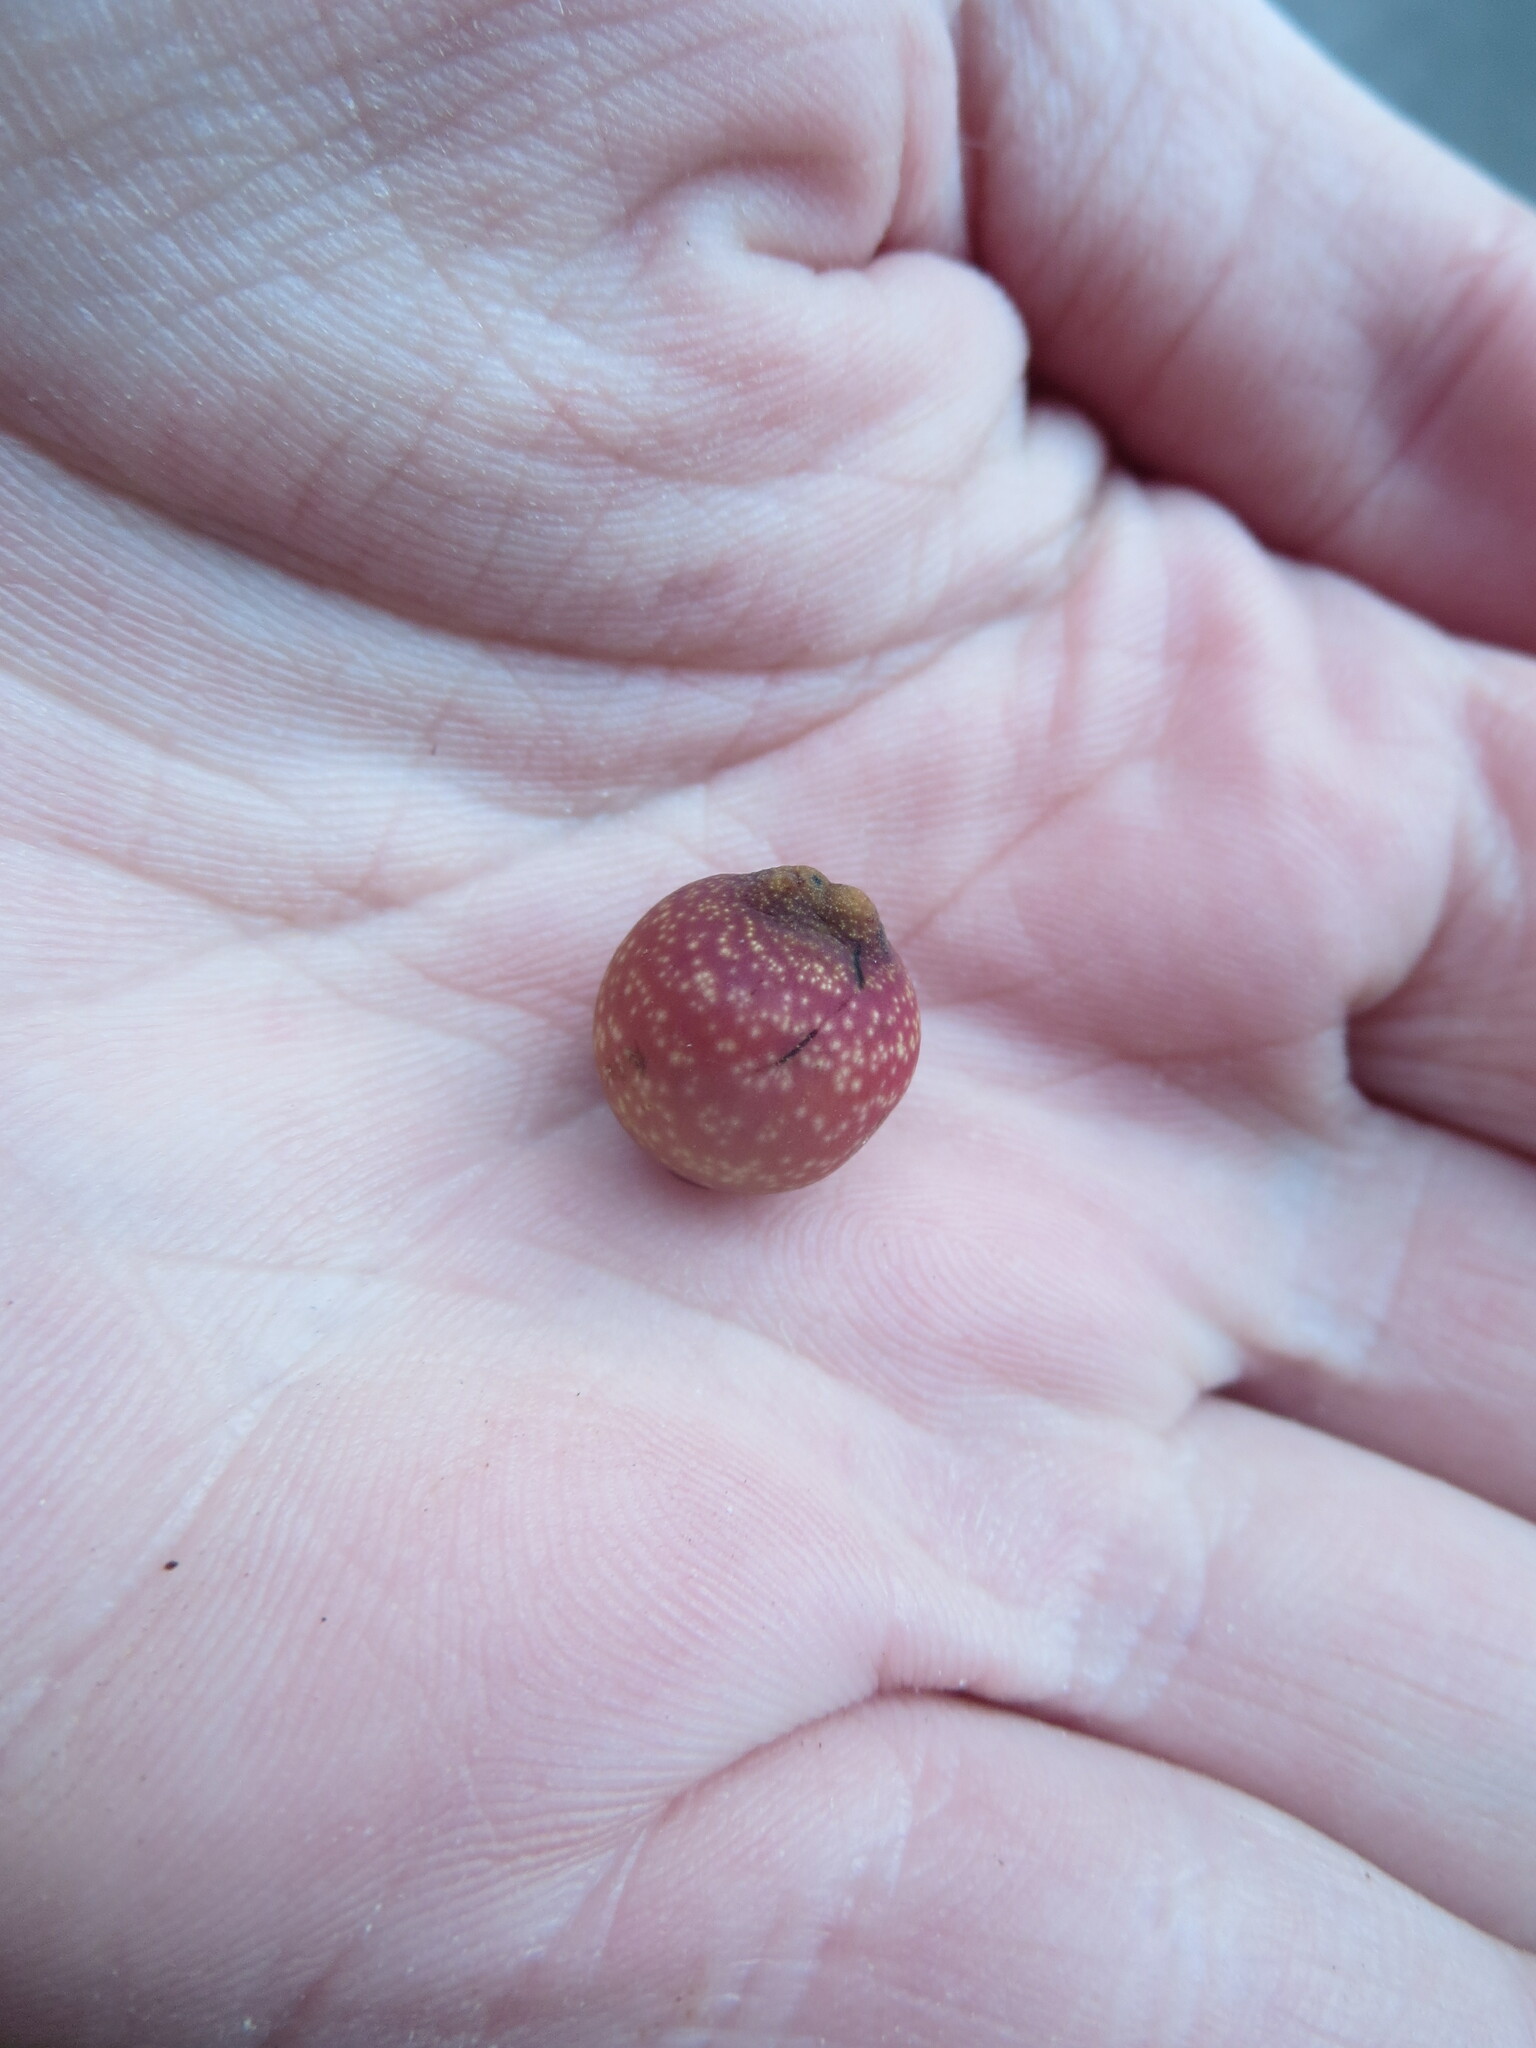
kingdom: Animalia
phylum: Arthropoda
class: Insecta
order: Hymenoptera
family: Cynipidae
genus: Kokkocynips
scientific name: Kokkocynips imbricariae
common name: Banded bullet gall wasp
